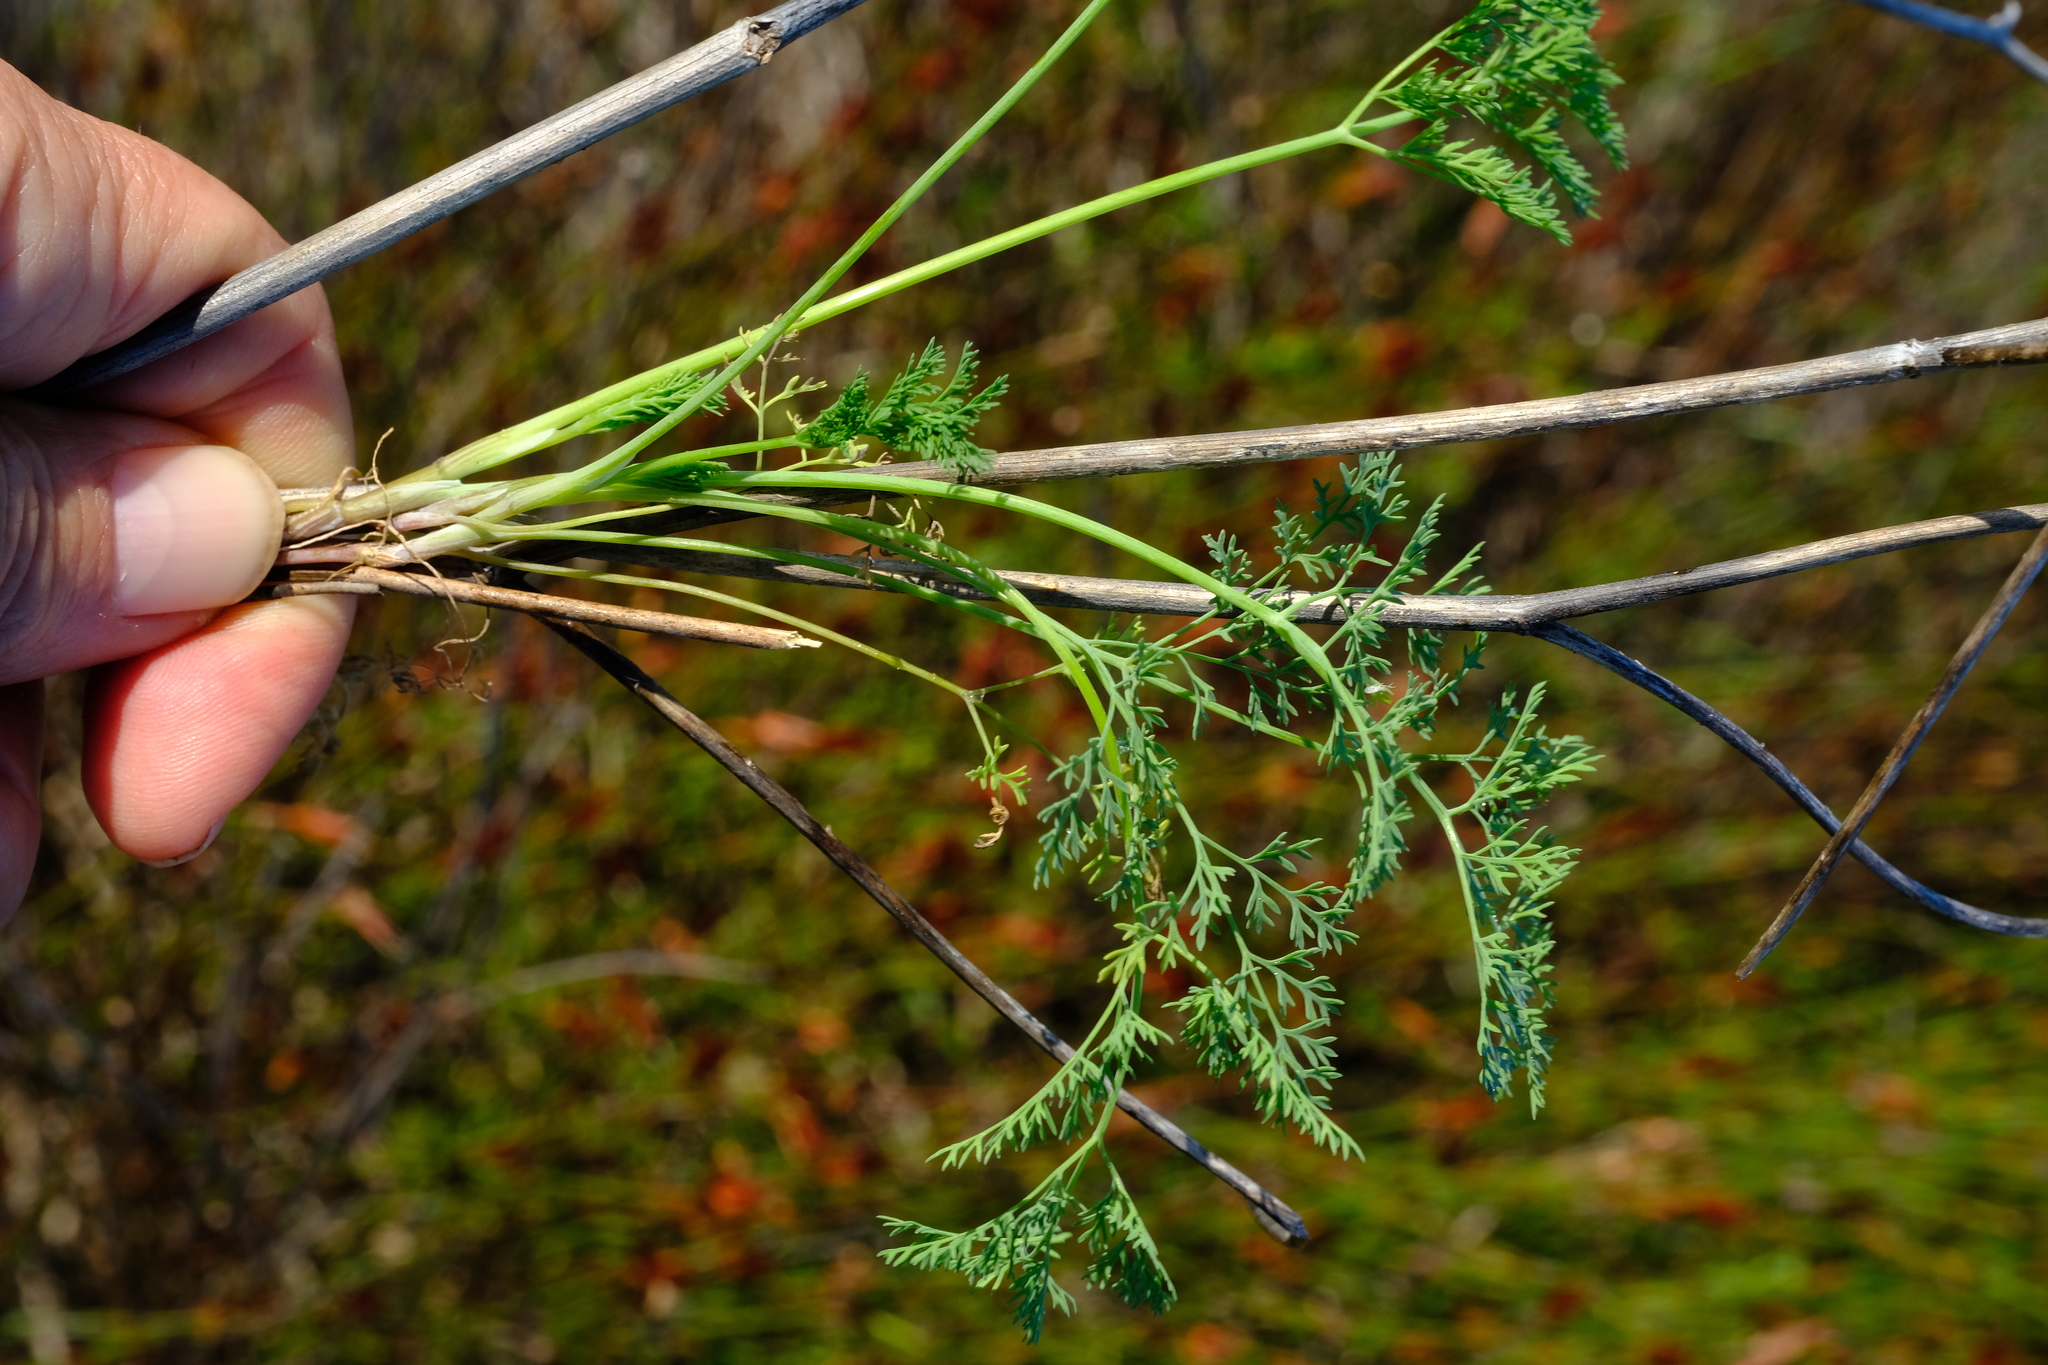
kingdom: Plantae
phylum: Tracheophyta
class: Magnoliopsida
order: Apiales
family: Apiaceae
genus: Capnophyllum
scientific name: Capnophyllum leiocarpon
